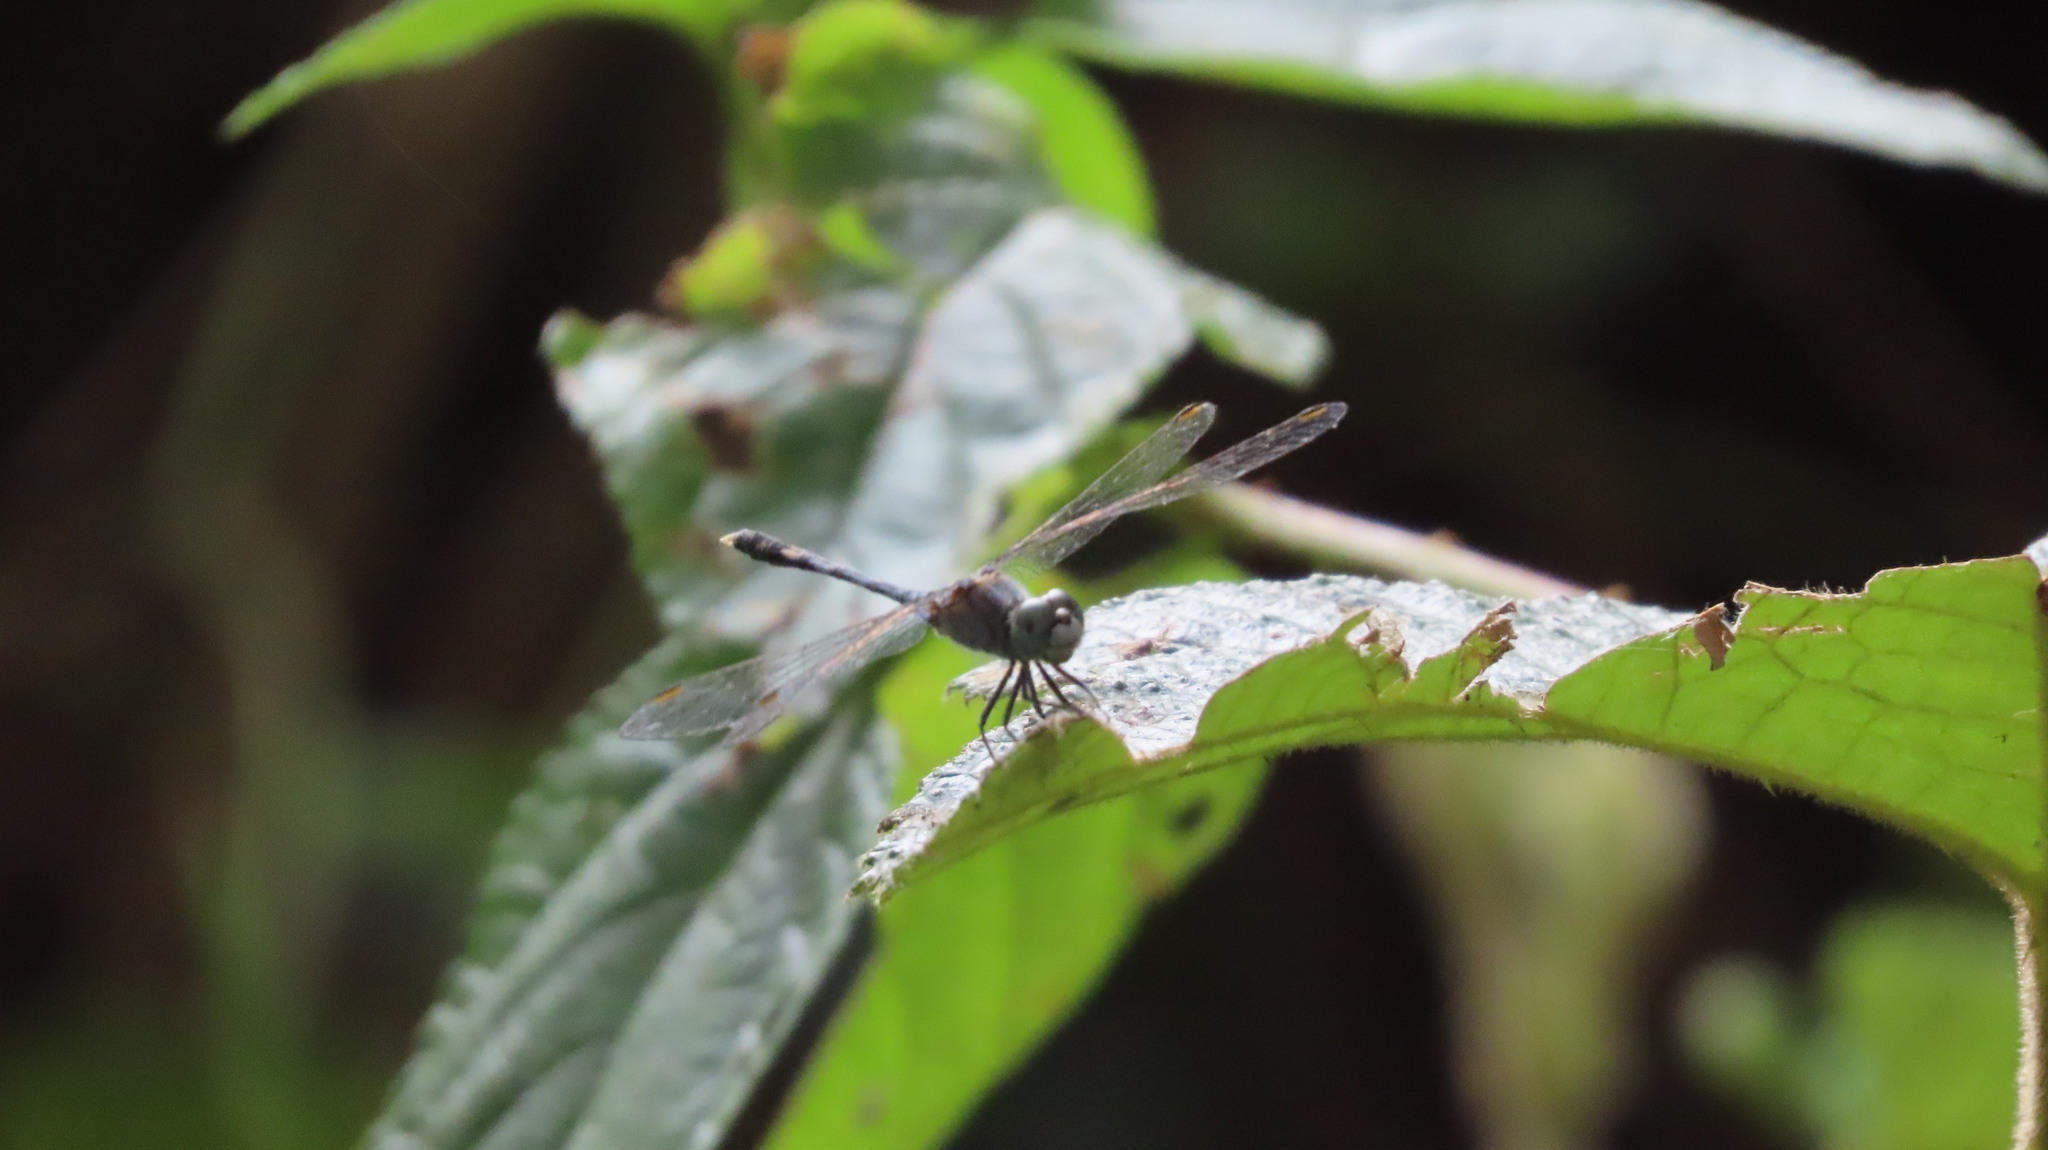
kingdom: Animalia
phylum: Arthropoda
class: Insecta
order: Odonata
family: Libellulidae
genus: Diplacodes
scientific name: Diplacodes trivialis
